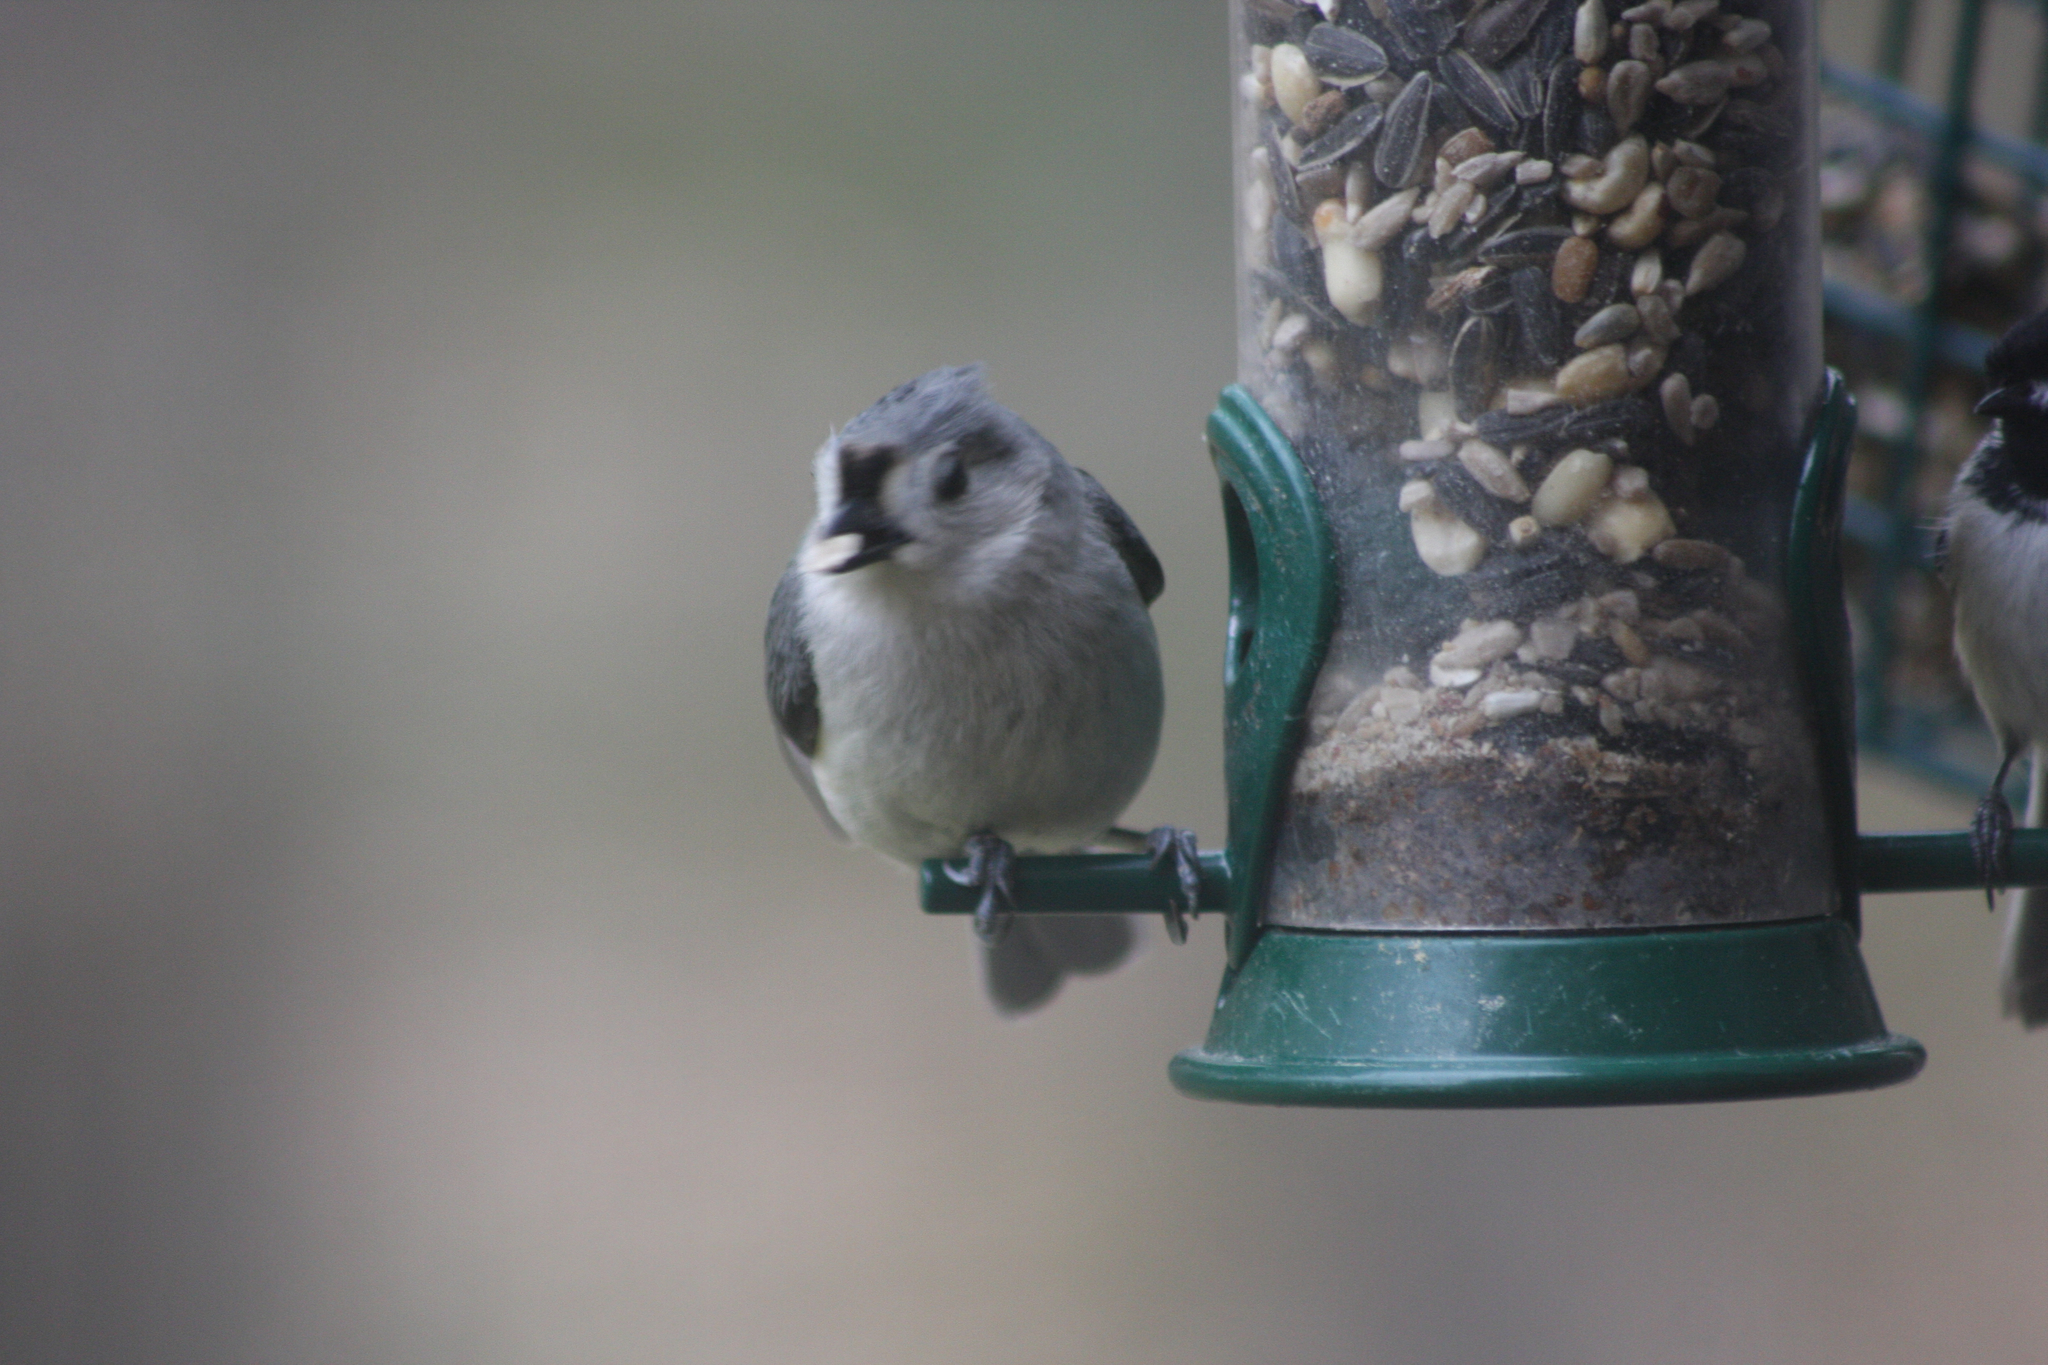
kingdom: Animalia
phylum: Chordata
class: Aves
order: Passeriformes
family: Paridae
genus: Baeolophus
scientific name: Baeolophus bicolor
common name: Tufted titmouse
